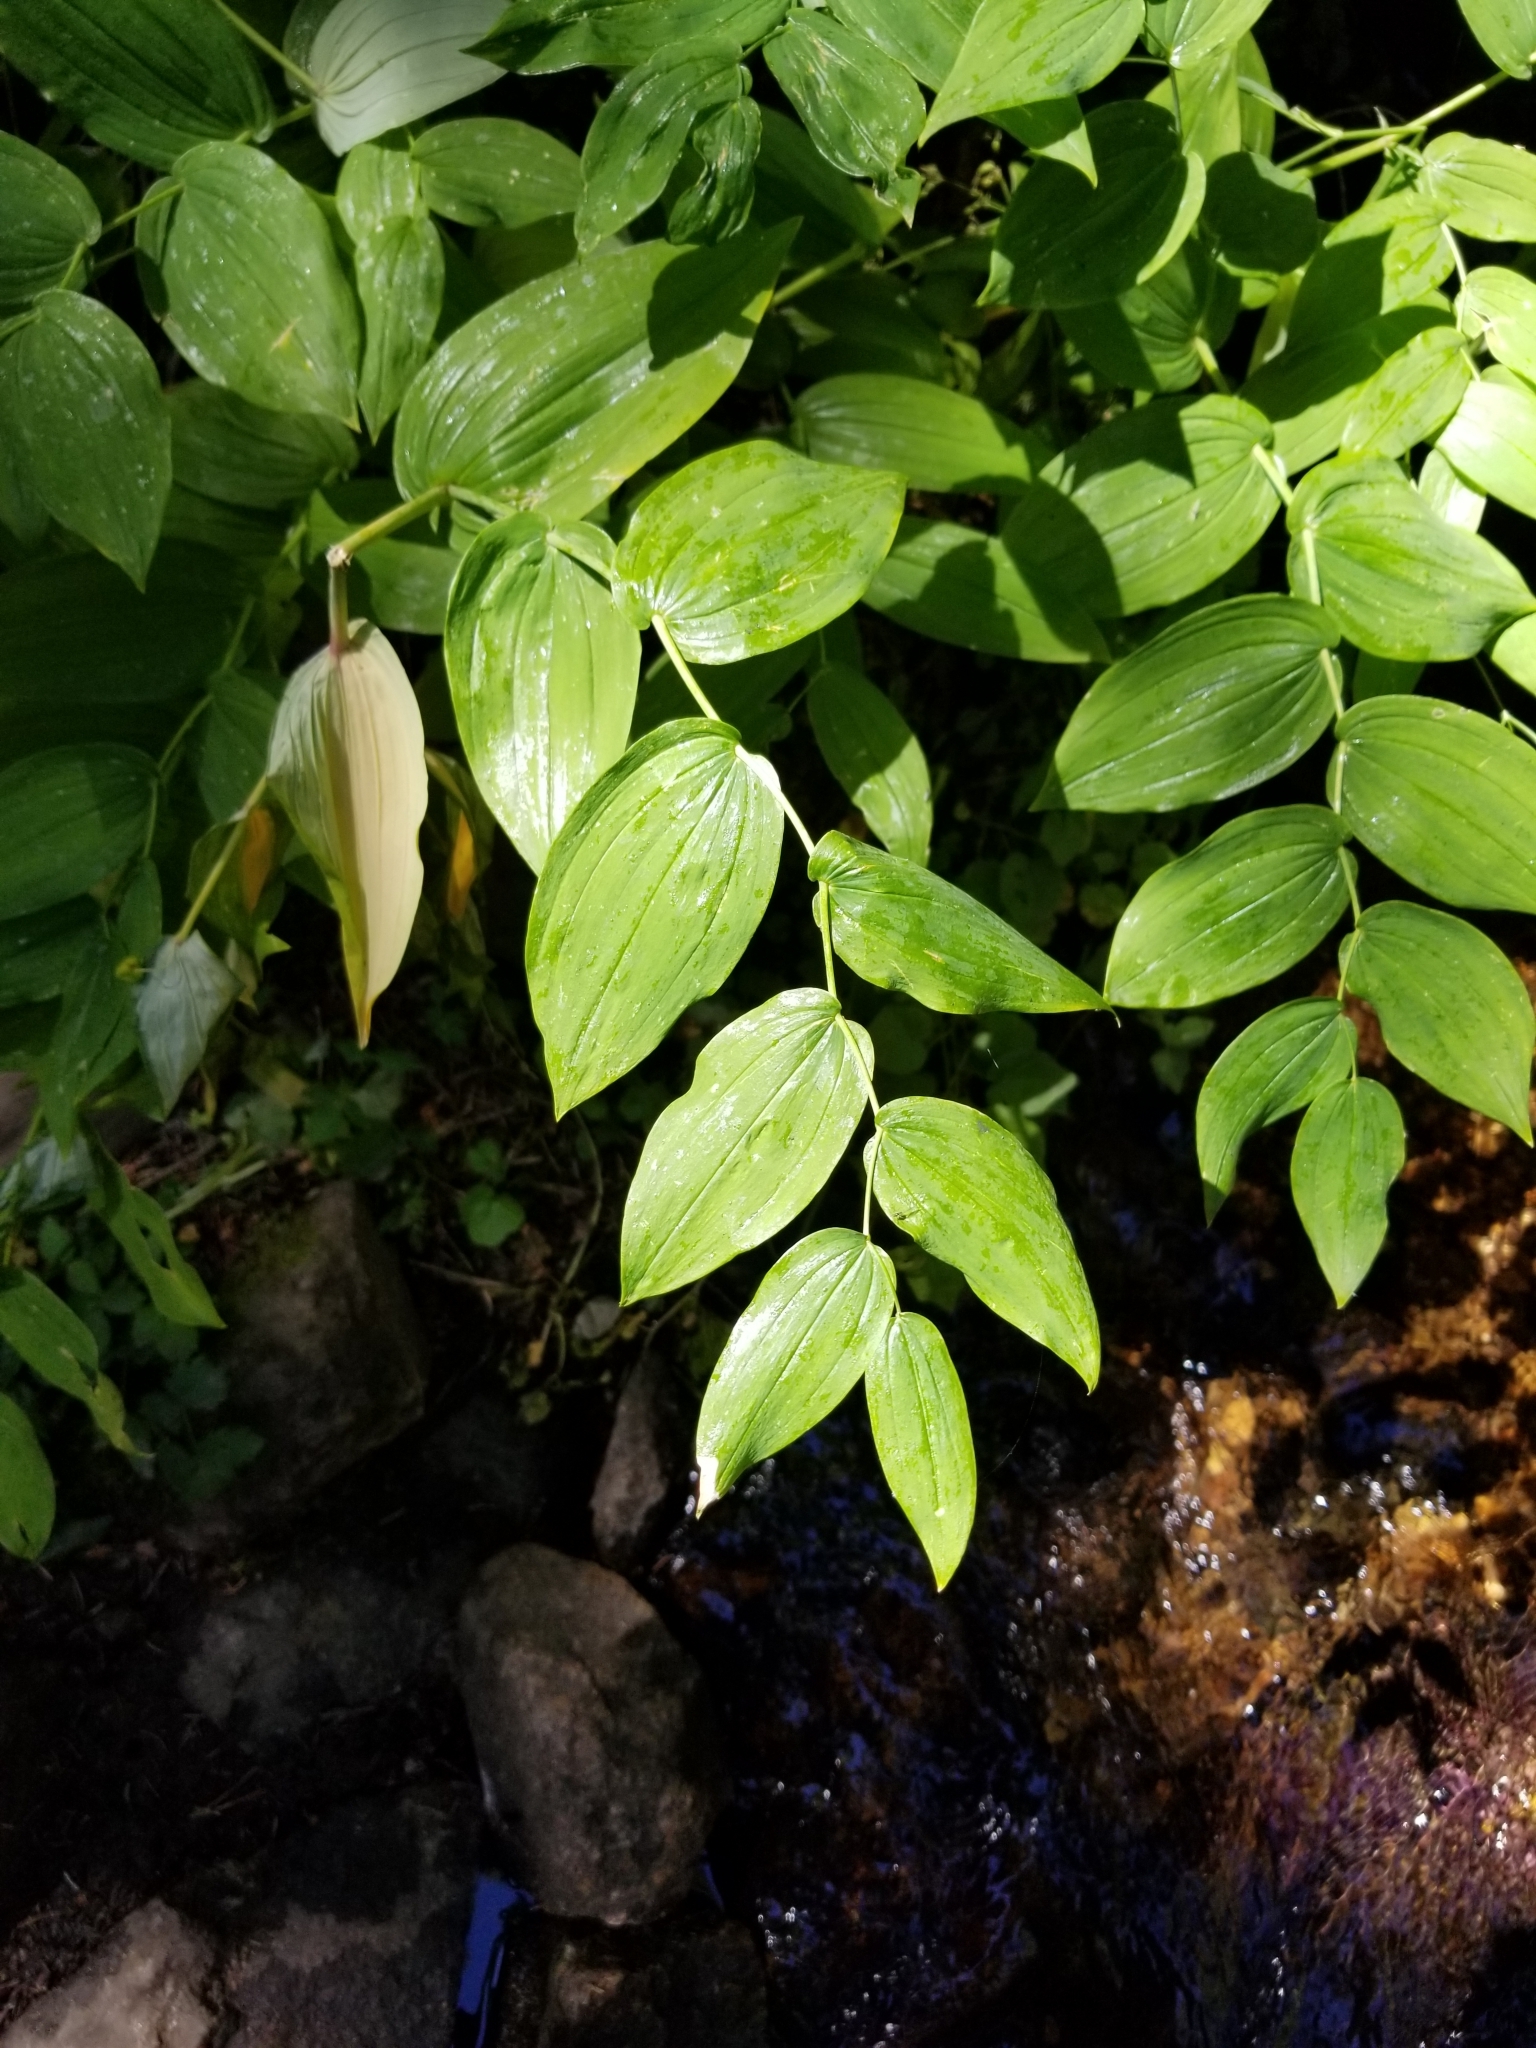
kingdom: Plantae
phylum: Tracheophyta
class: Liliopsida
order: Liliales
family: Liliaceae
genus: Streptopus
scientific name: Streptopus amplexifolius
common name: Clasp twisted stalk
